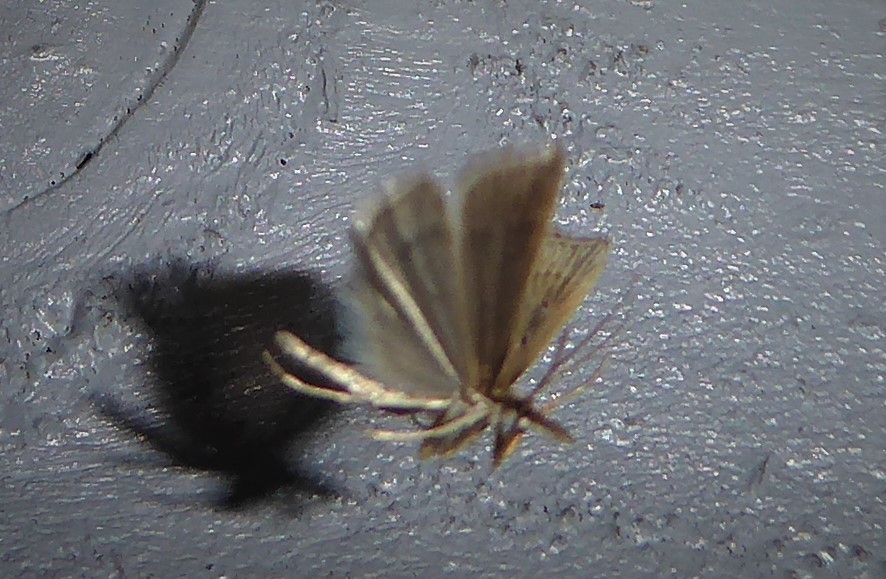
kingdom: Animalia
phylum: Arthropoda
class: Insecta
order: Lepidoptera
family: Crambidae
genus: Antiscopa
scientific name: Antiscopa elaphra
